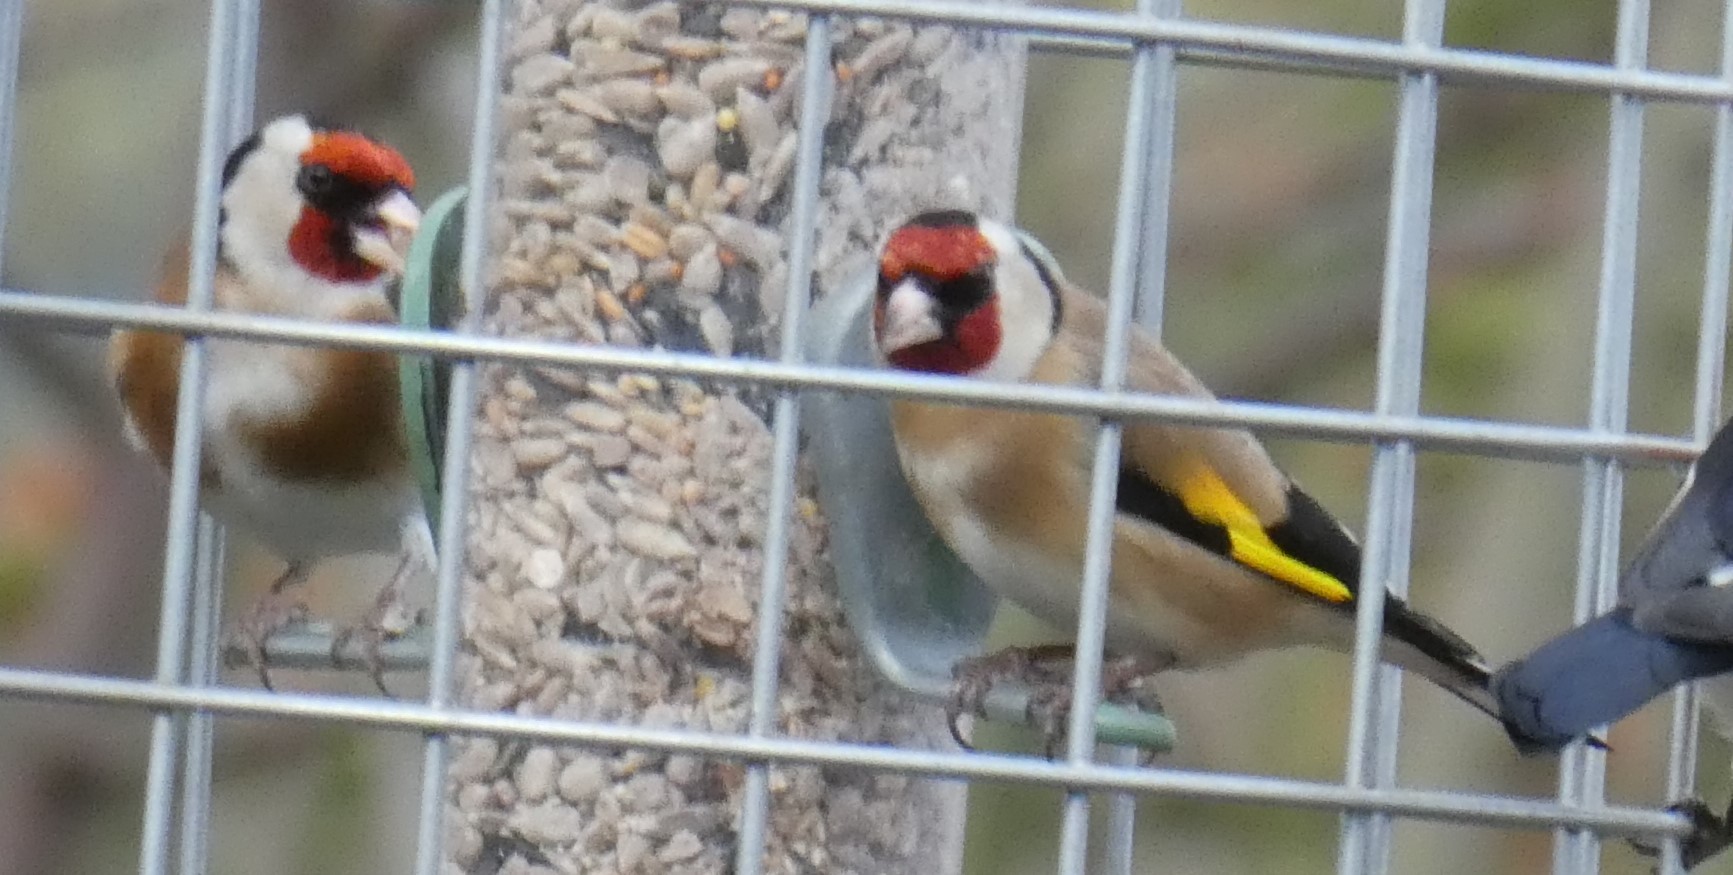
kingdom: Animalia
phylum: Chordata
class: Aves
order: Passeriformes
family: Fringillidae
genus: Carduelis
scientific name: Carduelis carduelis
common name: European goldfinch
